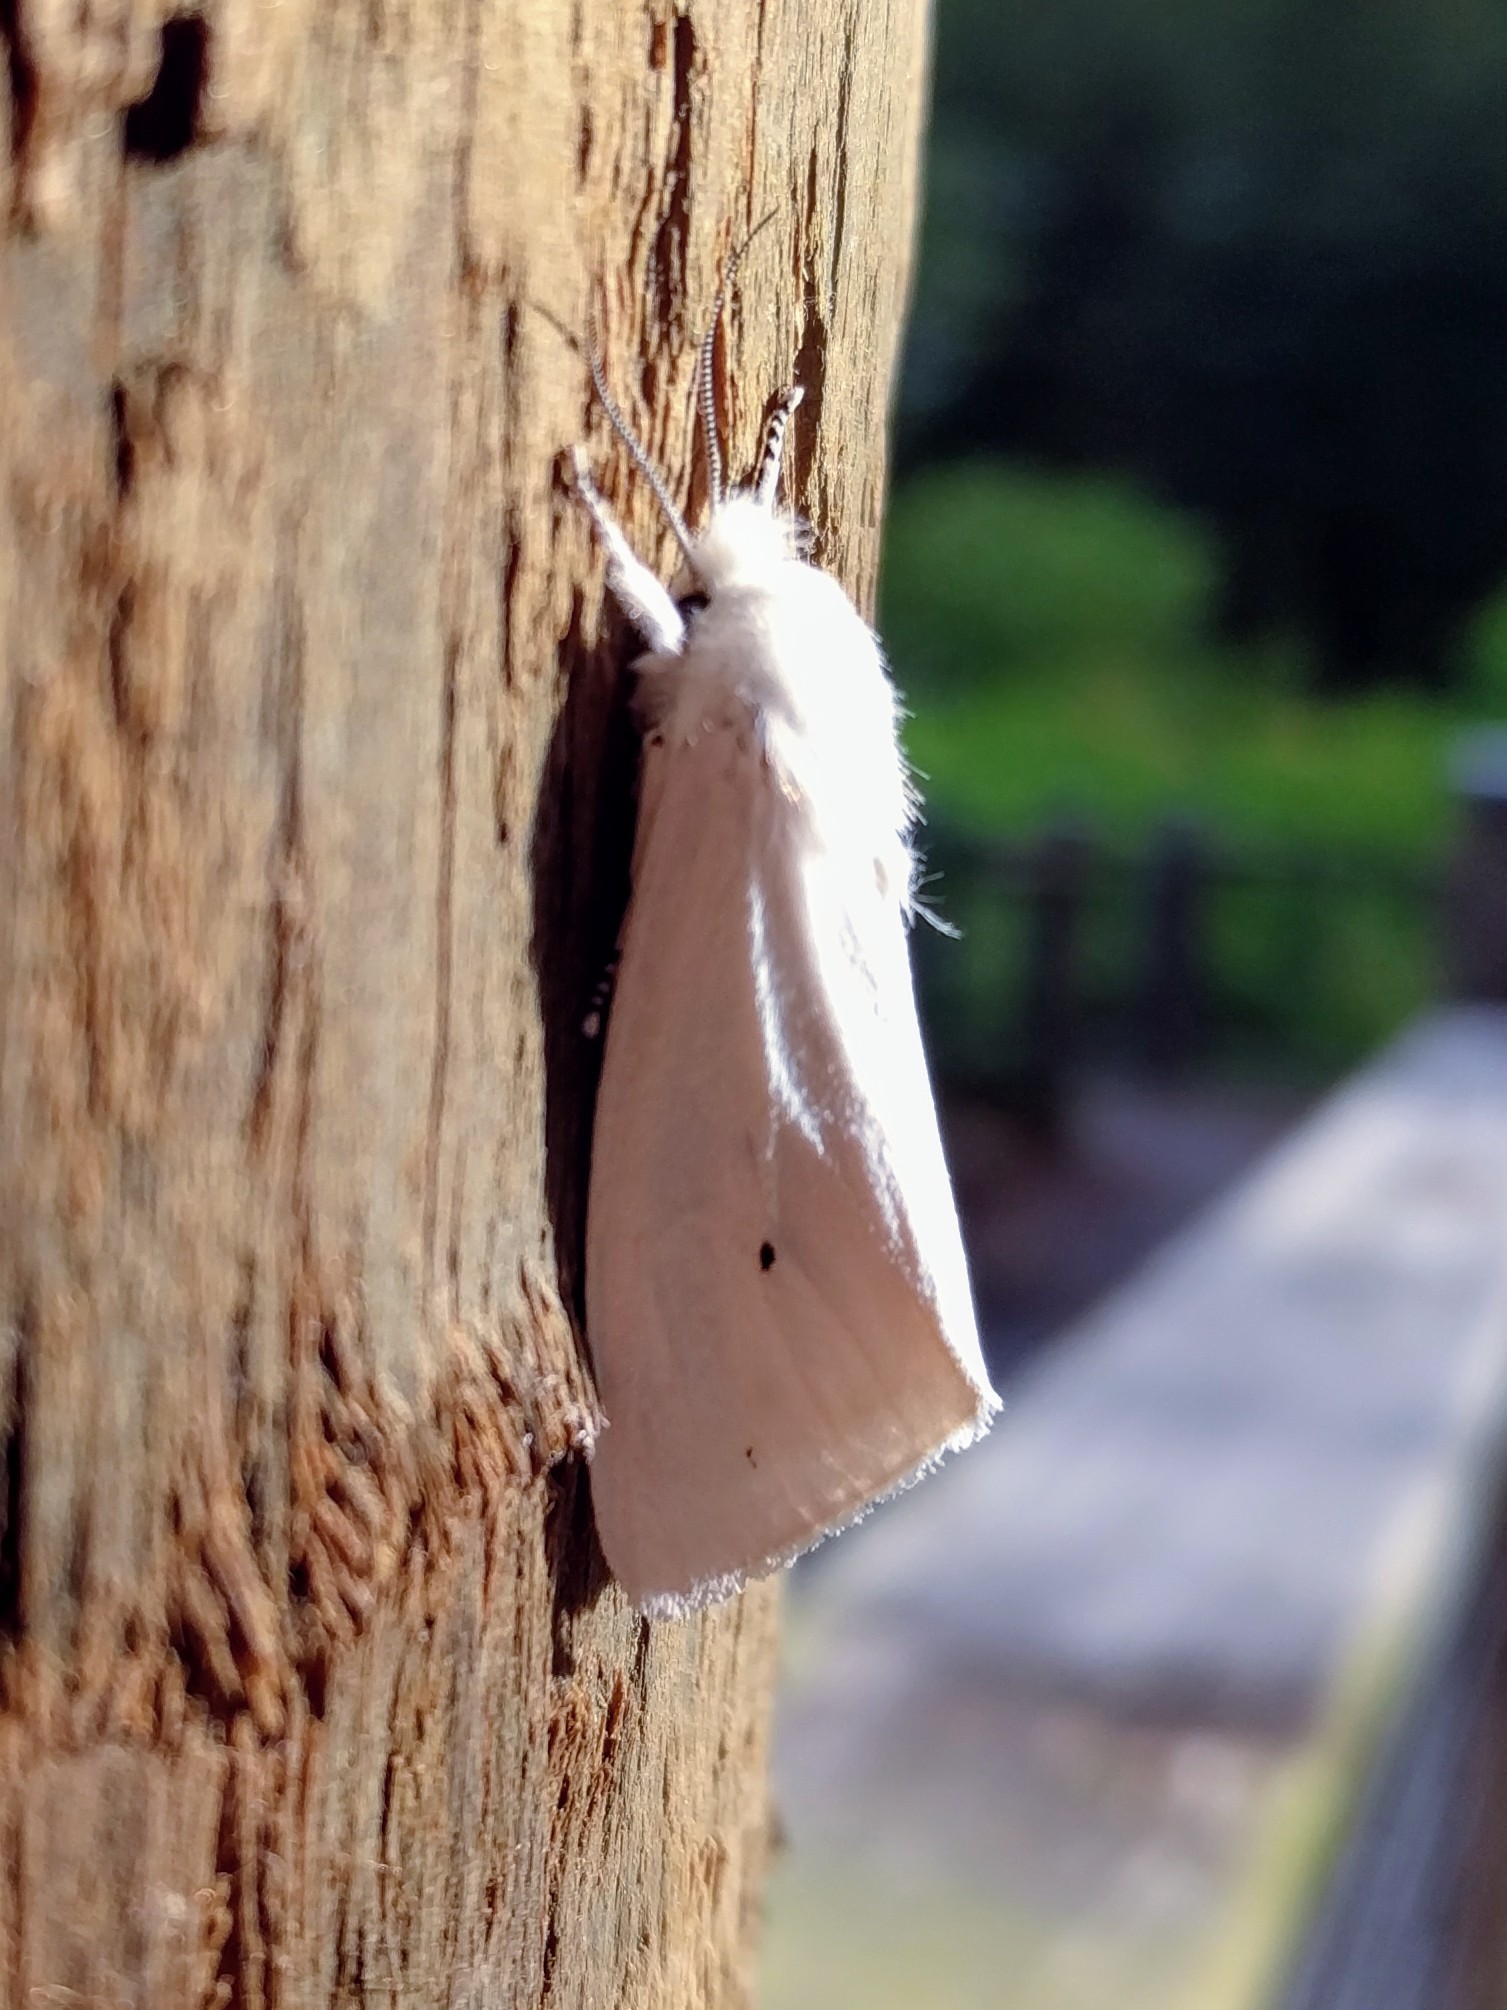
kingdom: Animalia
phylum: Arthropoda
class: Insecta
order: Lepidoptera
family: Erebidae
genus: Spilosoma
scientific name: Spilosoma virginica
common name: Virginia tiger moth
